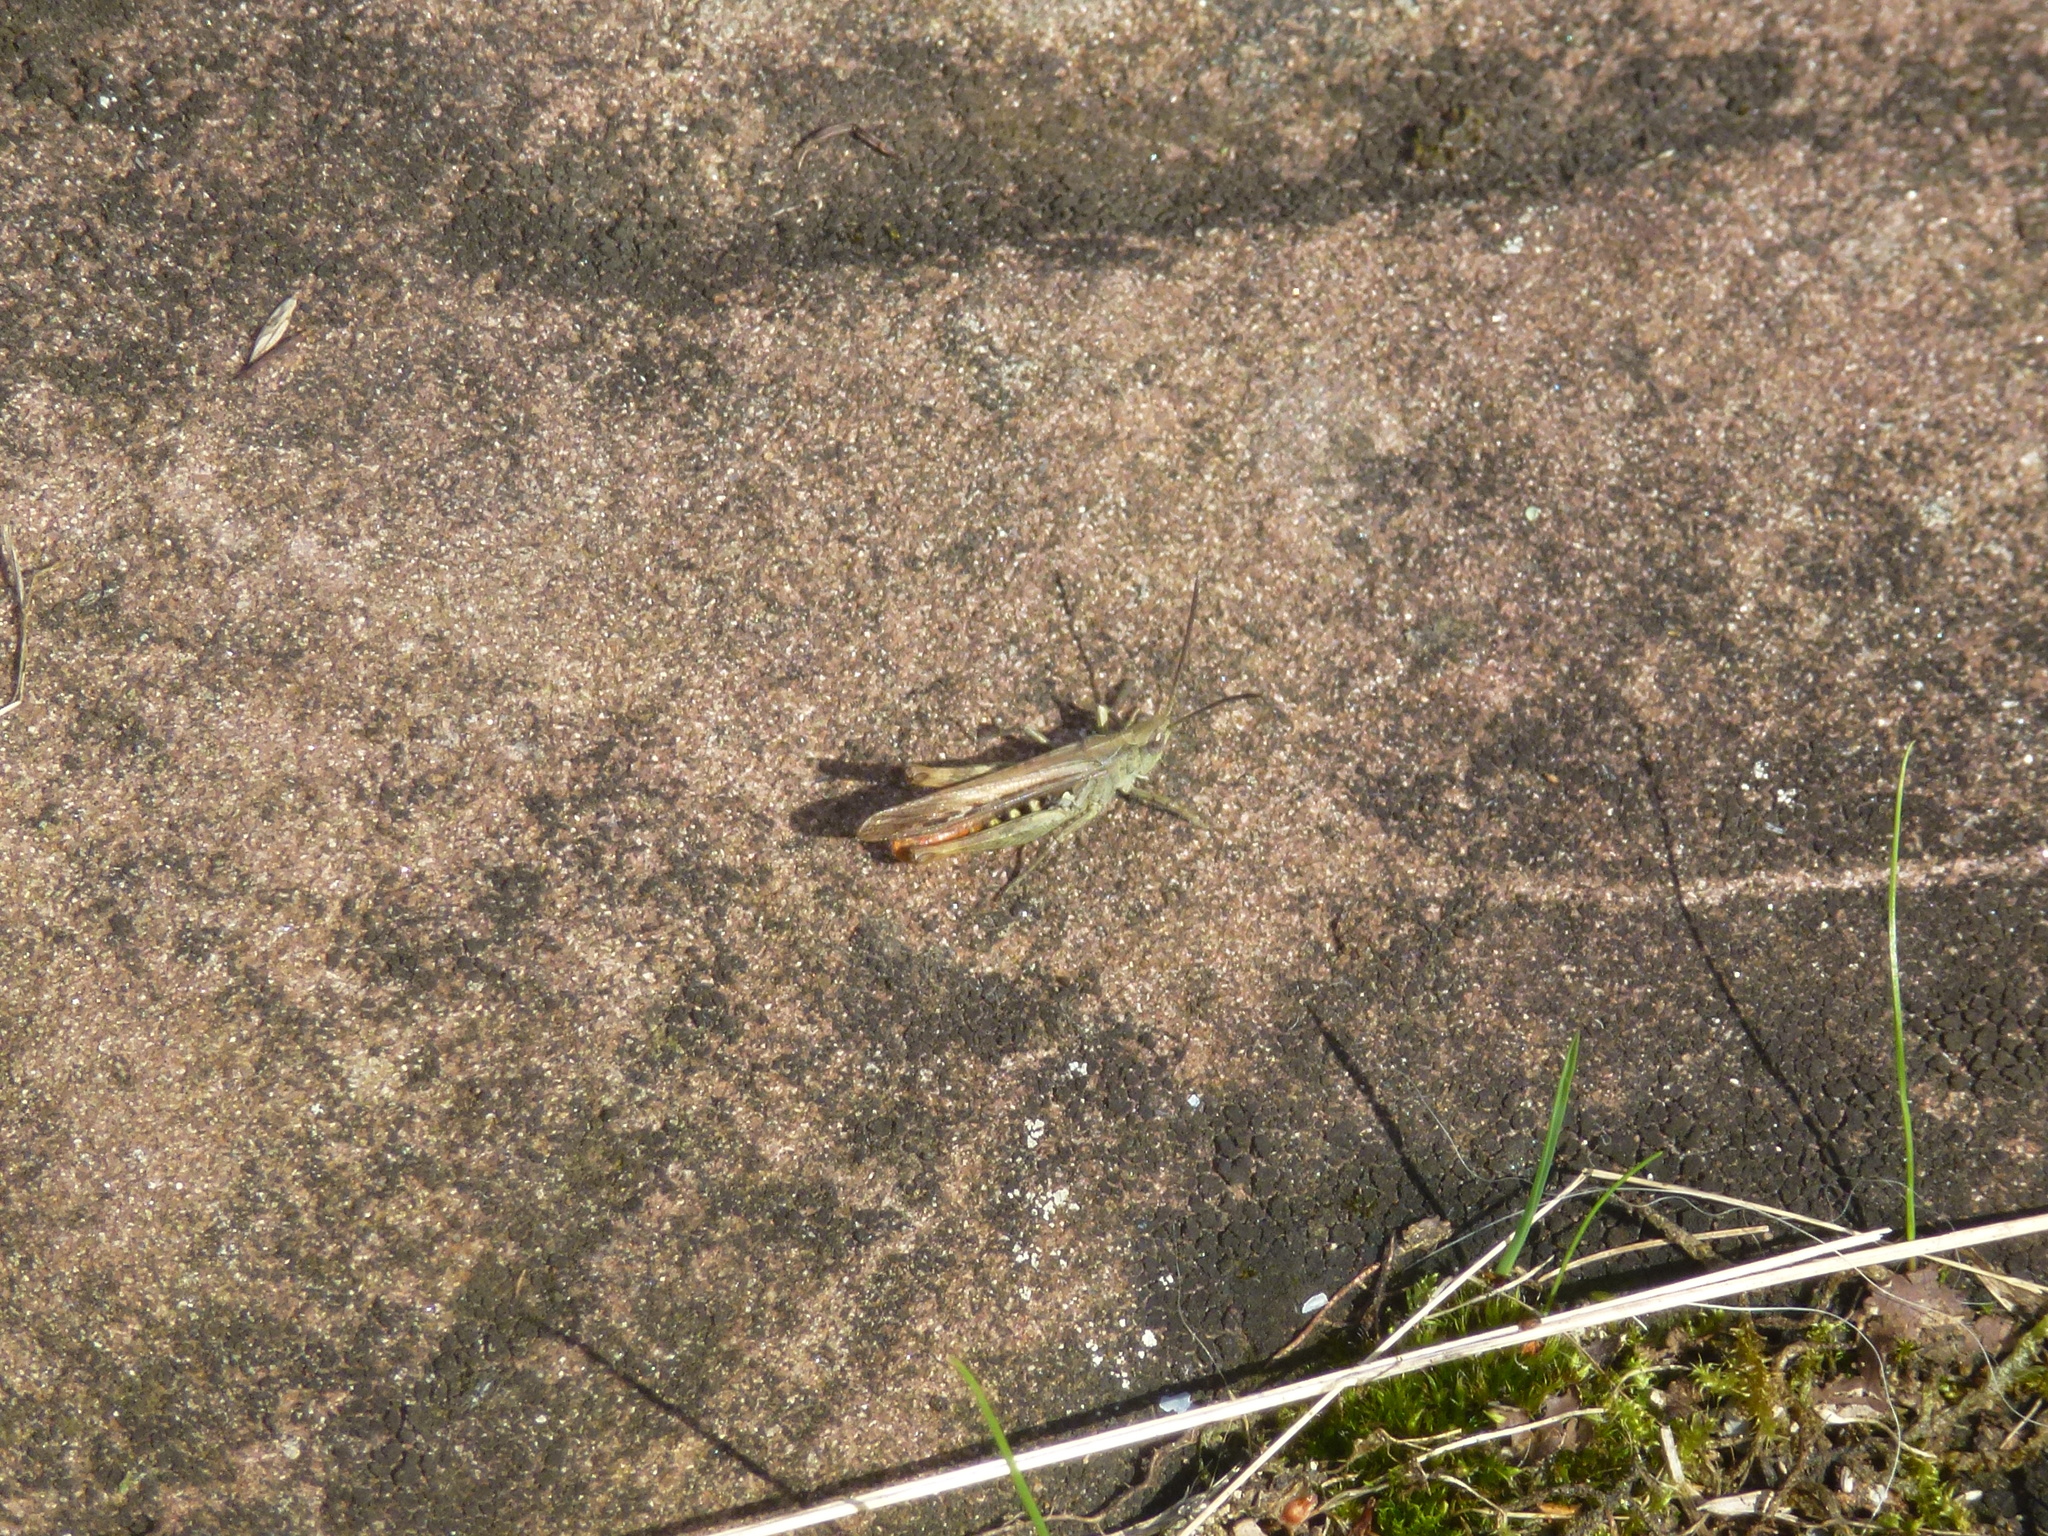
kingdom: Animalia
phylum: Arthropoda
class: Insecta
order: Orthoptera
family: Acrididae
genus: Chorthippus
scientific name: Chorthippus brunneus
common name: Field grasshopper
